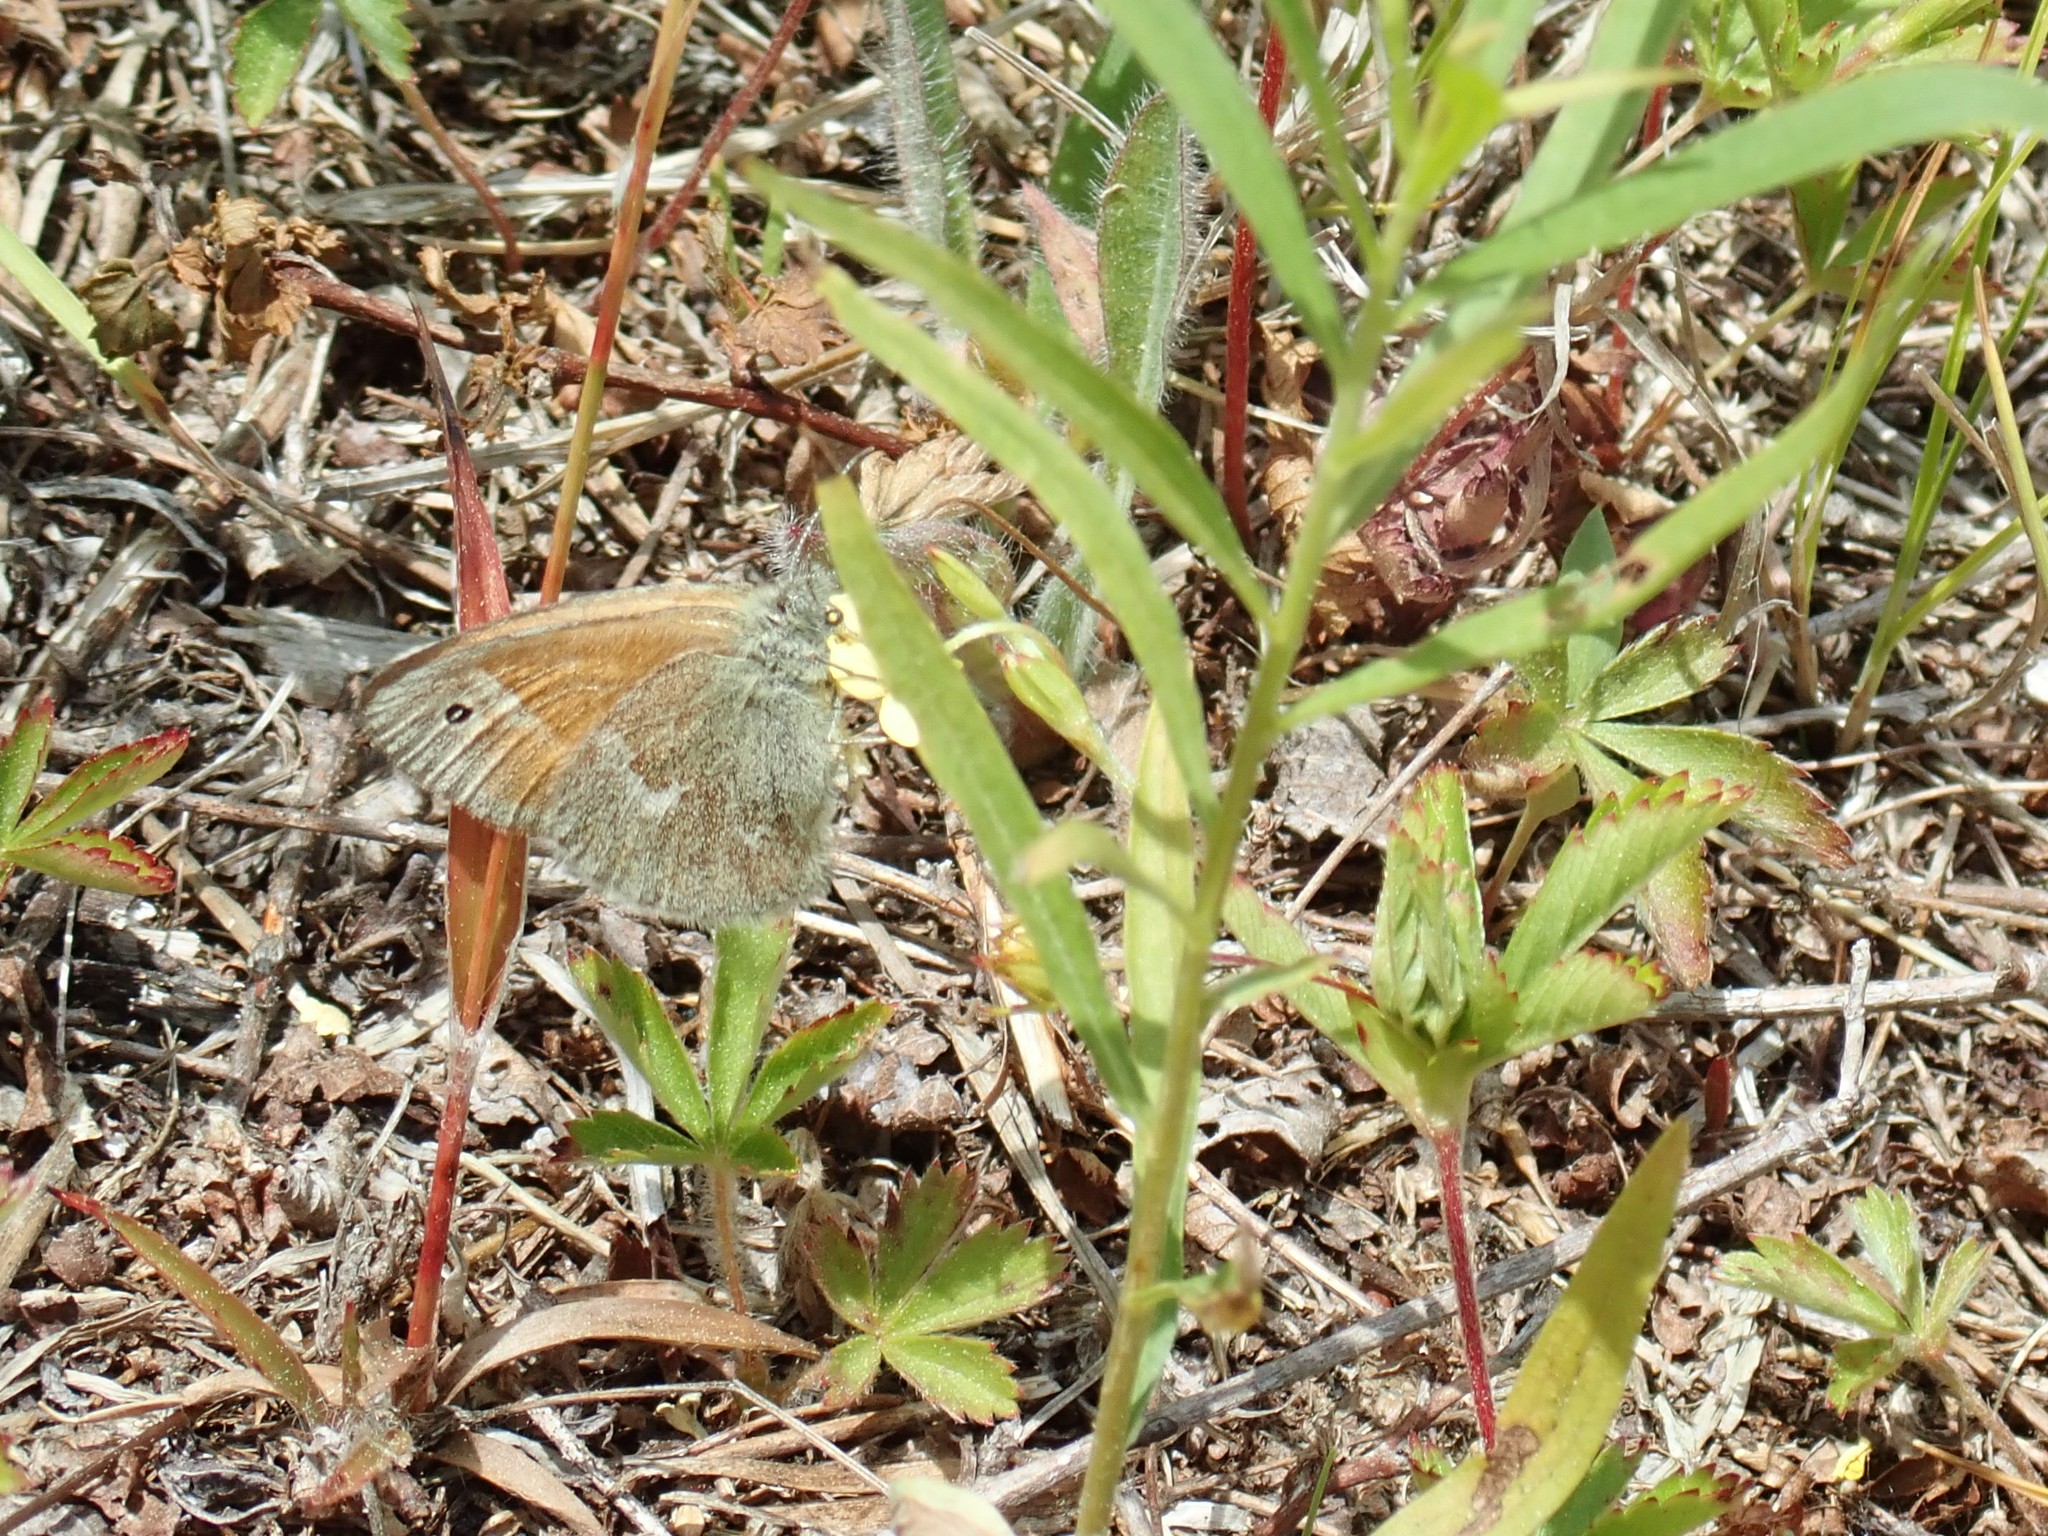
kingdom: Animalia
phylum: Arthropoda
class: Insecta
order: Lepidoptera
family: Nymphalidae
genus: Coenonympha
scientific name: Coenonympha california
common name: Common ringlet
